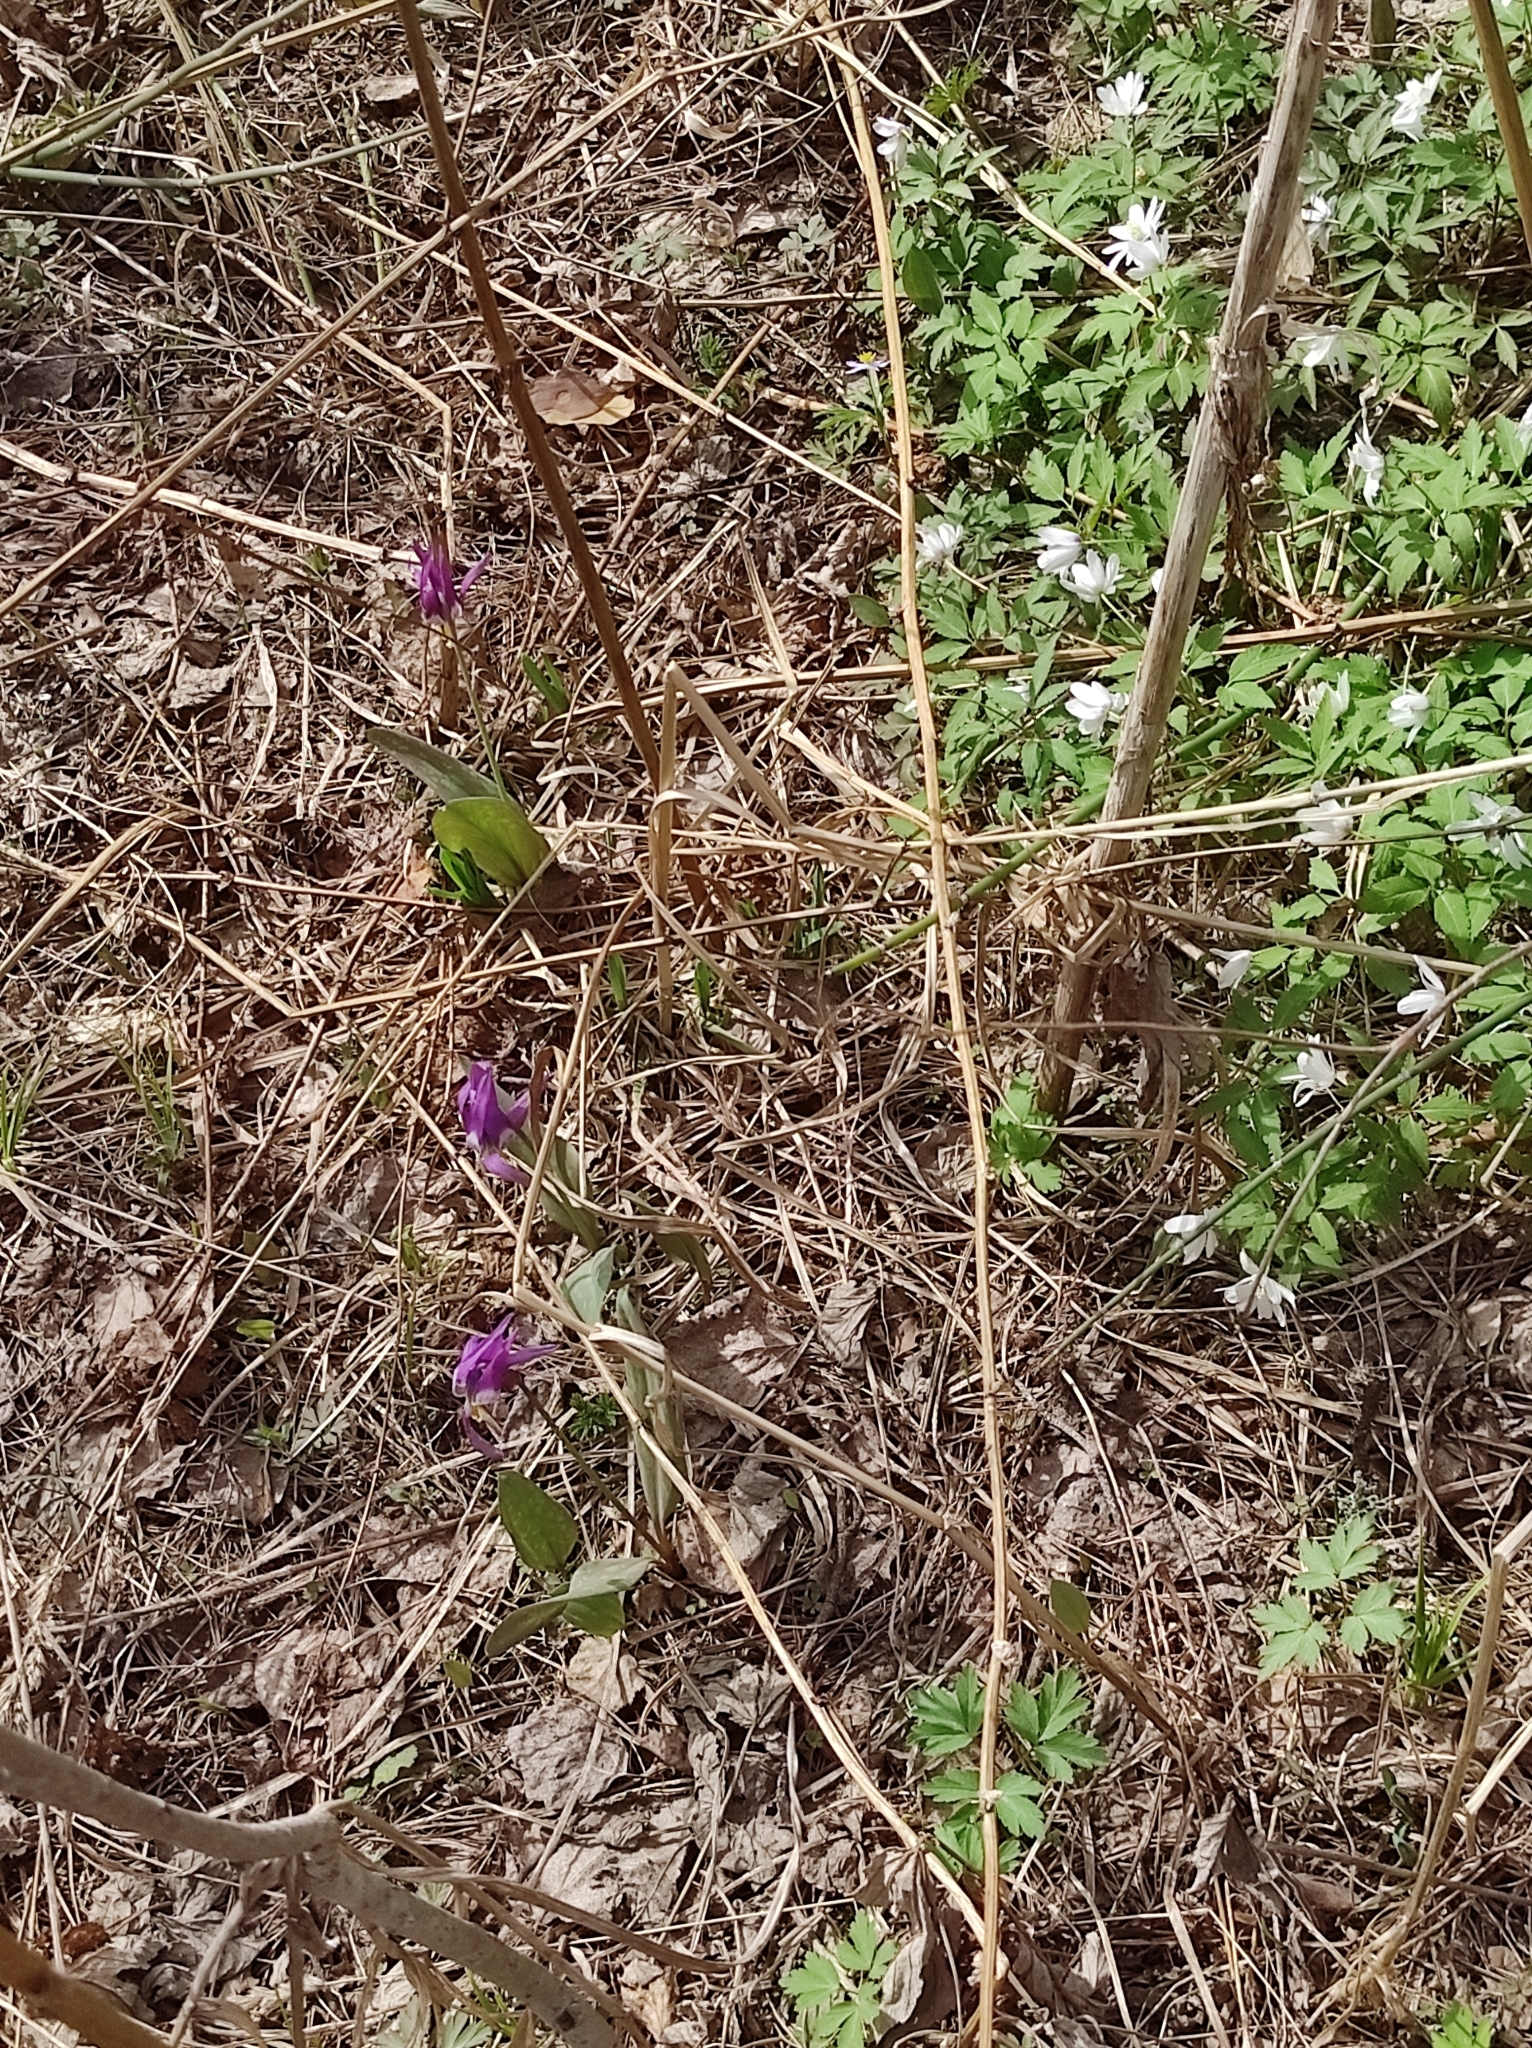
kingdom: Plantae
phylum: Tracheophyta
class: Magnoliopsida
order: Ranunculales
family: Ranunculaceae
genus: Anemone
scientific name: Anemone altaica
